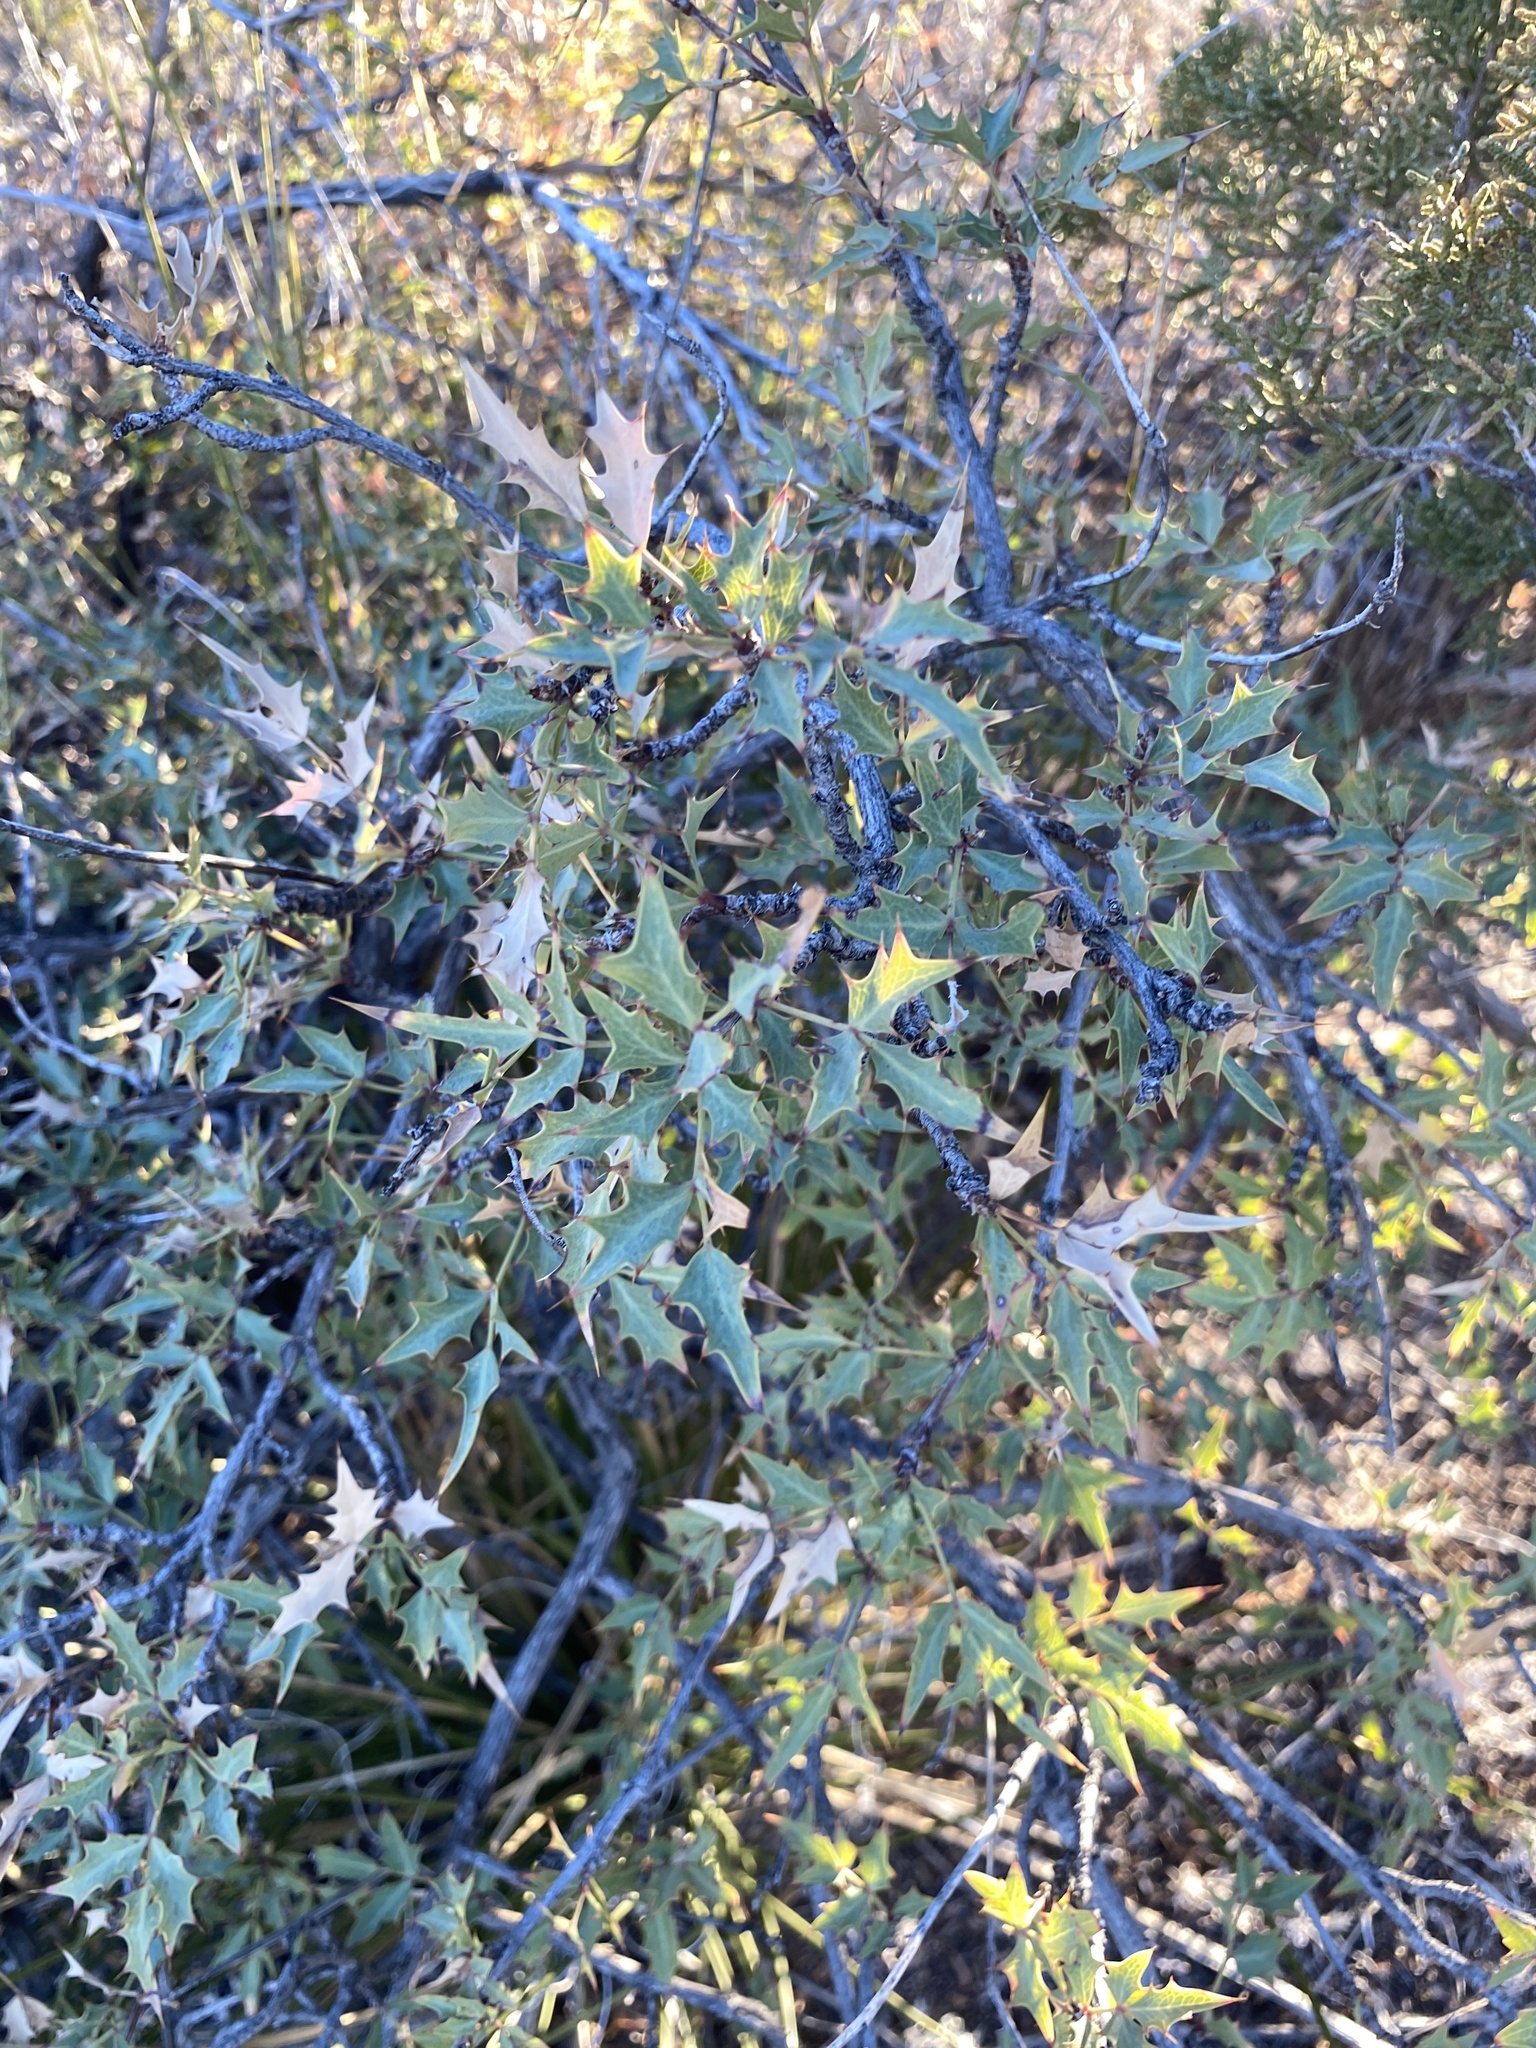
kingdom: Plantae
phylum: Tracheophyta
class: Magnoliopsida
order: Ranunculales
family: Berberidaceae
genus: Alloberberis
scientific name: Alloberberis haematocarpa
